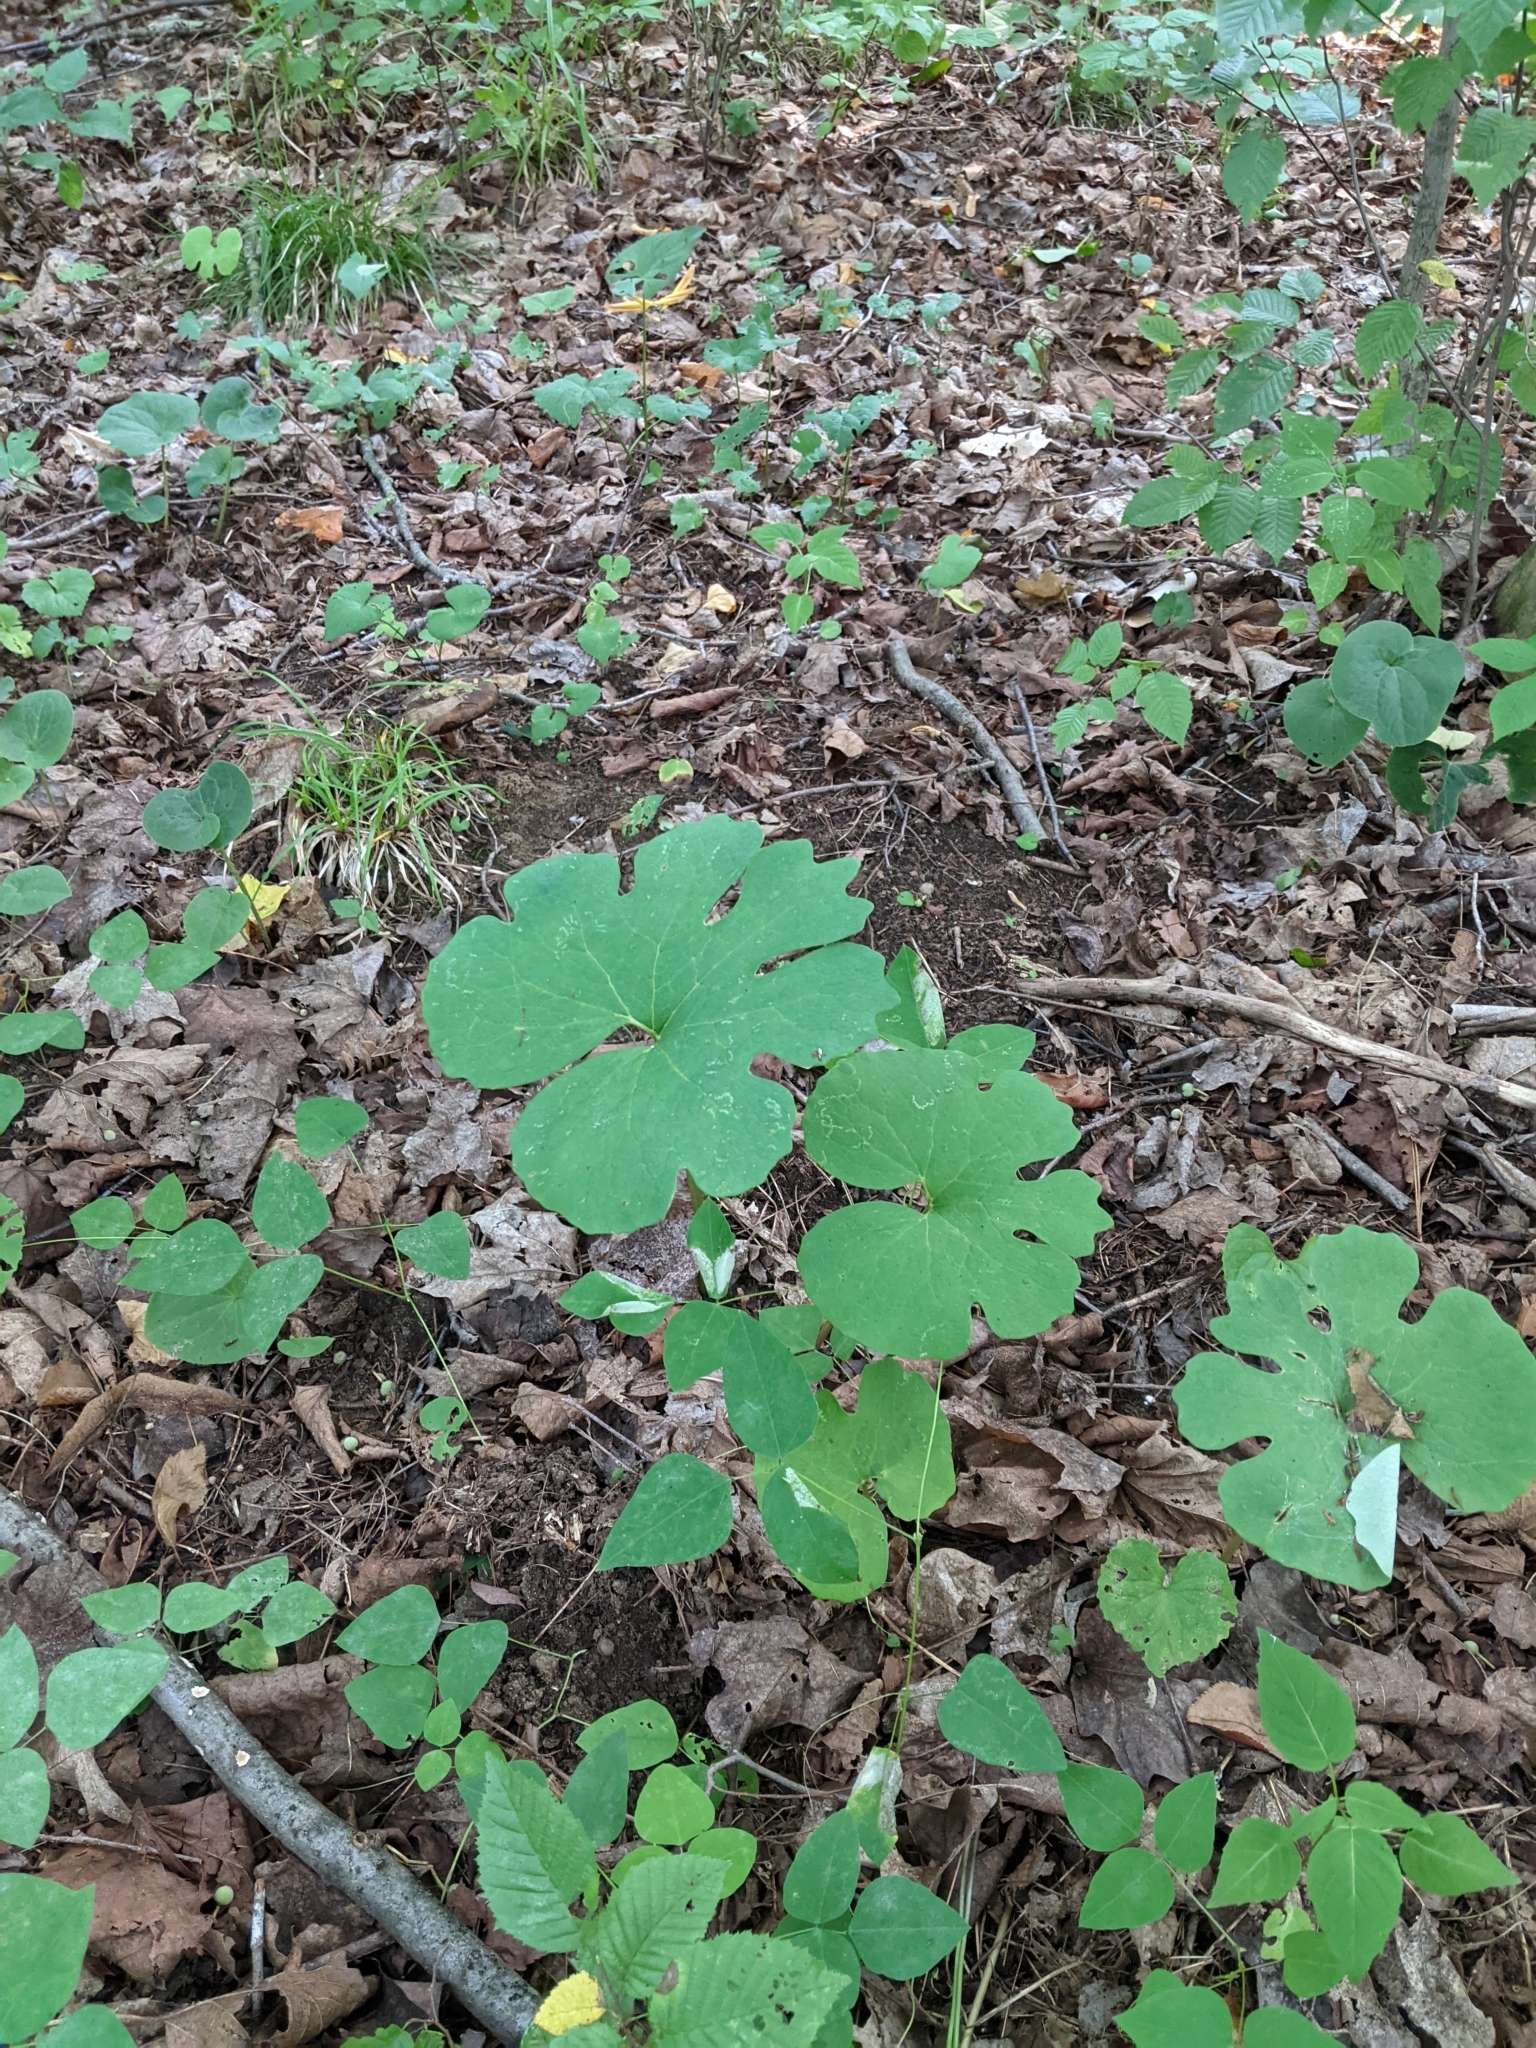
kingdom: Plantae
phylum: Tracheophyta
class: Magnoliopsida
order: Ranunculales
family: Papaveraceae
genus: Sanguinaria
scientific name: Sanguinaria canadensis
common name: Bloodroot
